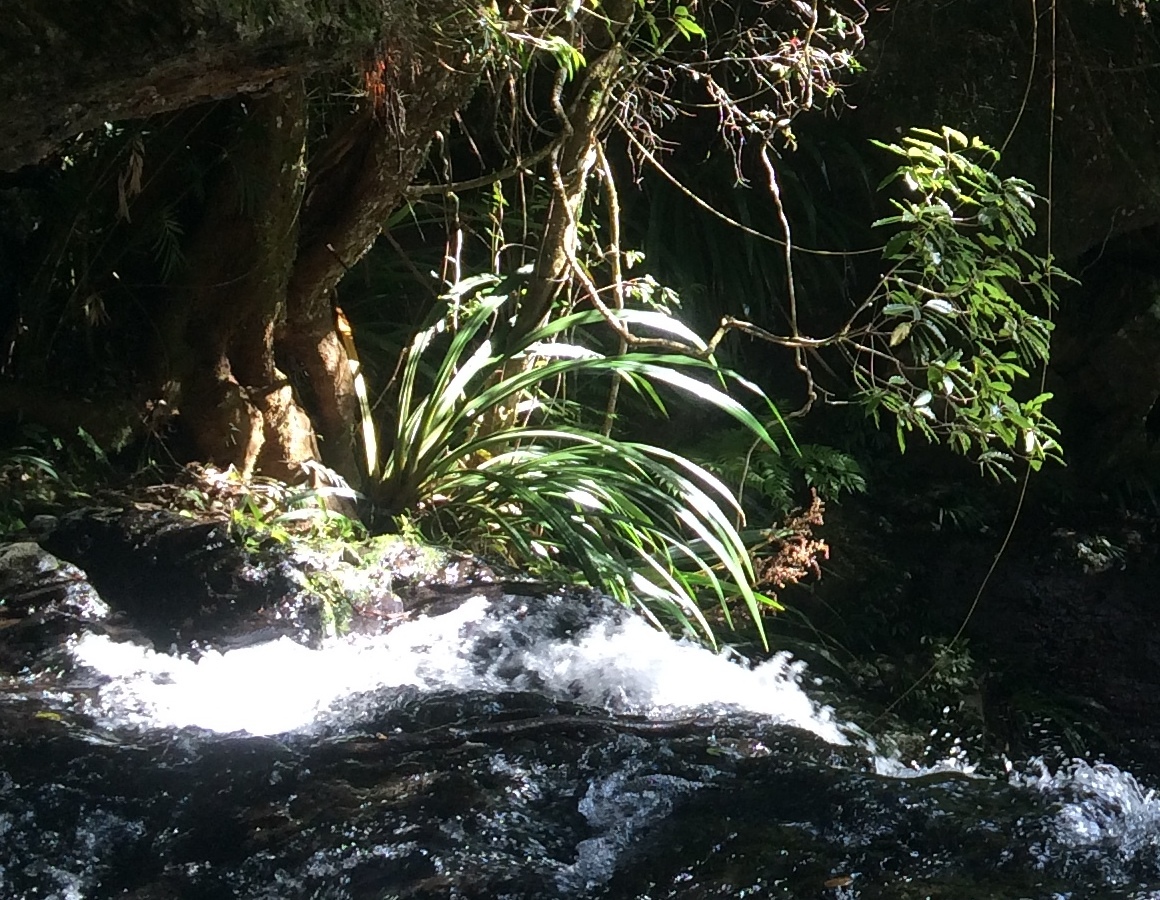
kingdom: Plantae
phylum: Tracheophyta
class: Liliopsida
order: Commelinales
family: Philydraceae
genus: Helmholtzia
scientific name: Helmholtzia glaberrima
